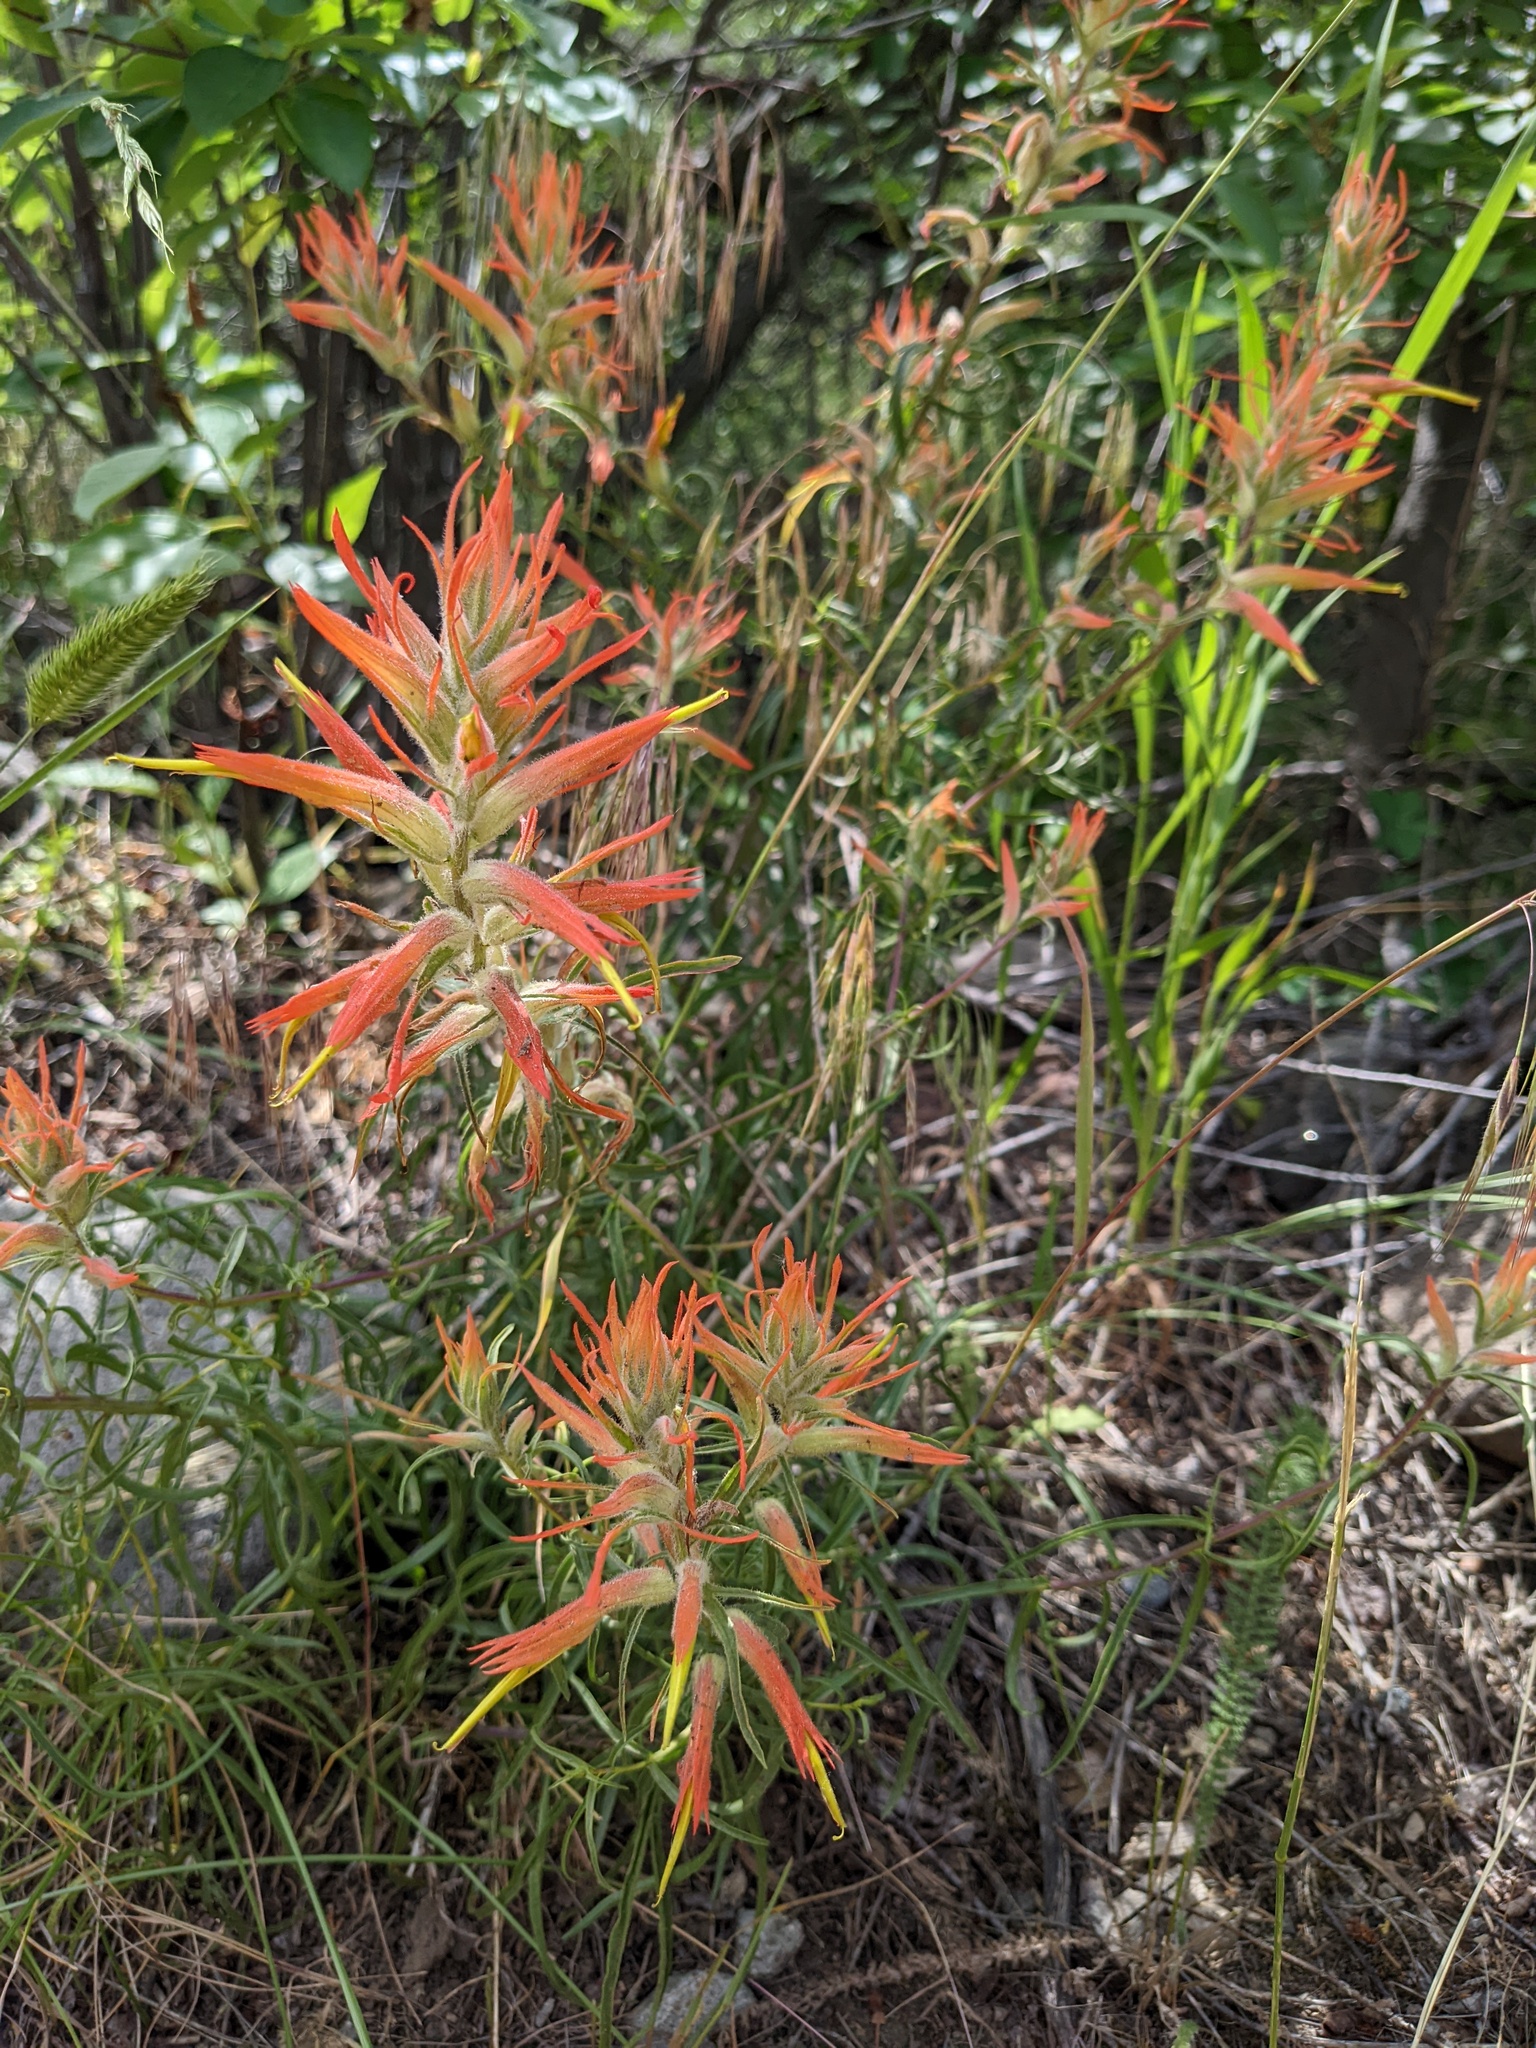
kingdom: Plantae
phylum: Tracheophyta
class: Magnoliopsida
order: Lamiales
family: Orobanchaceae
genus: Castilleja
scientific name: Castilleja linariifolia
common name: Wyoming paintbrush
